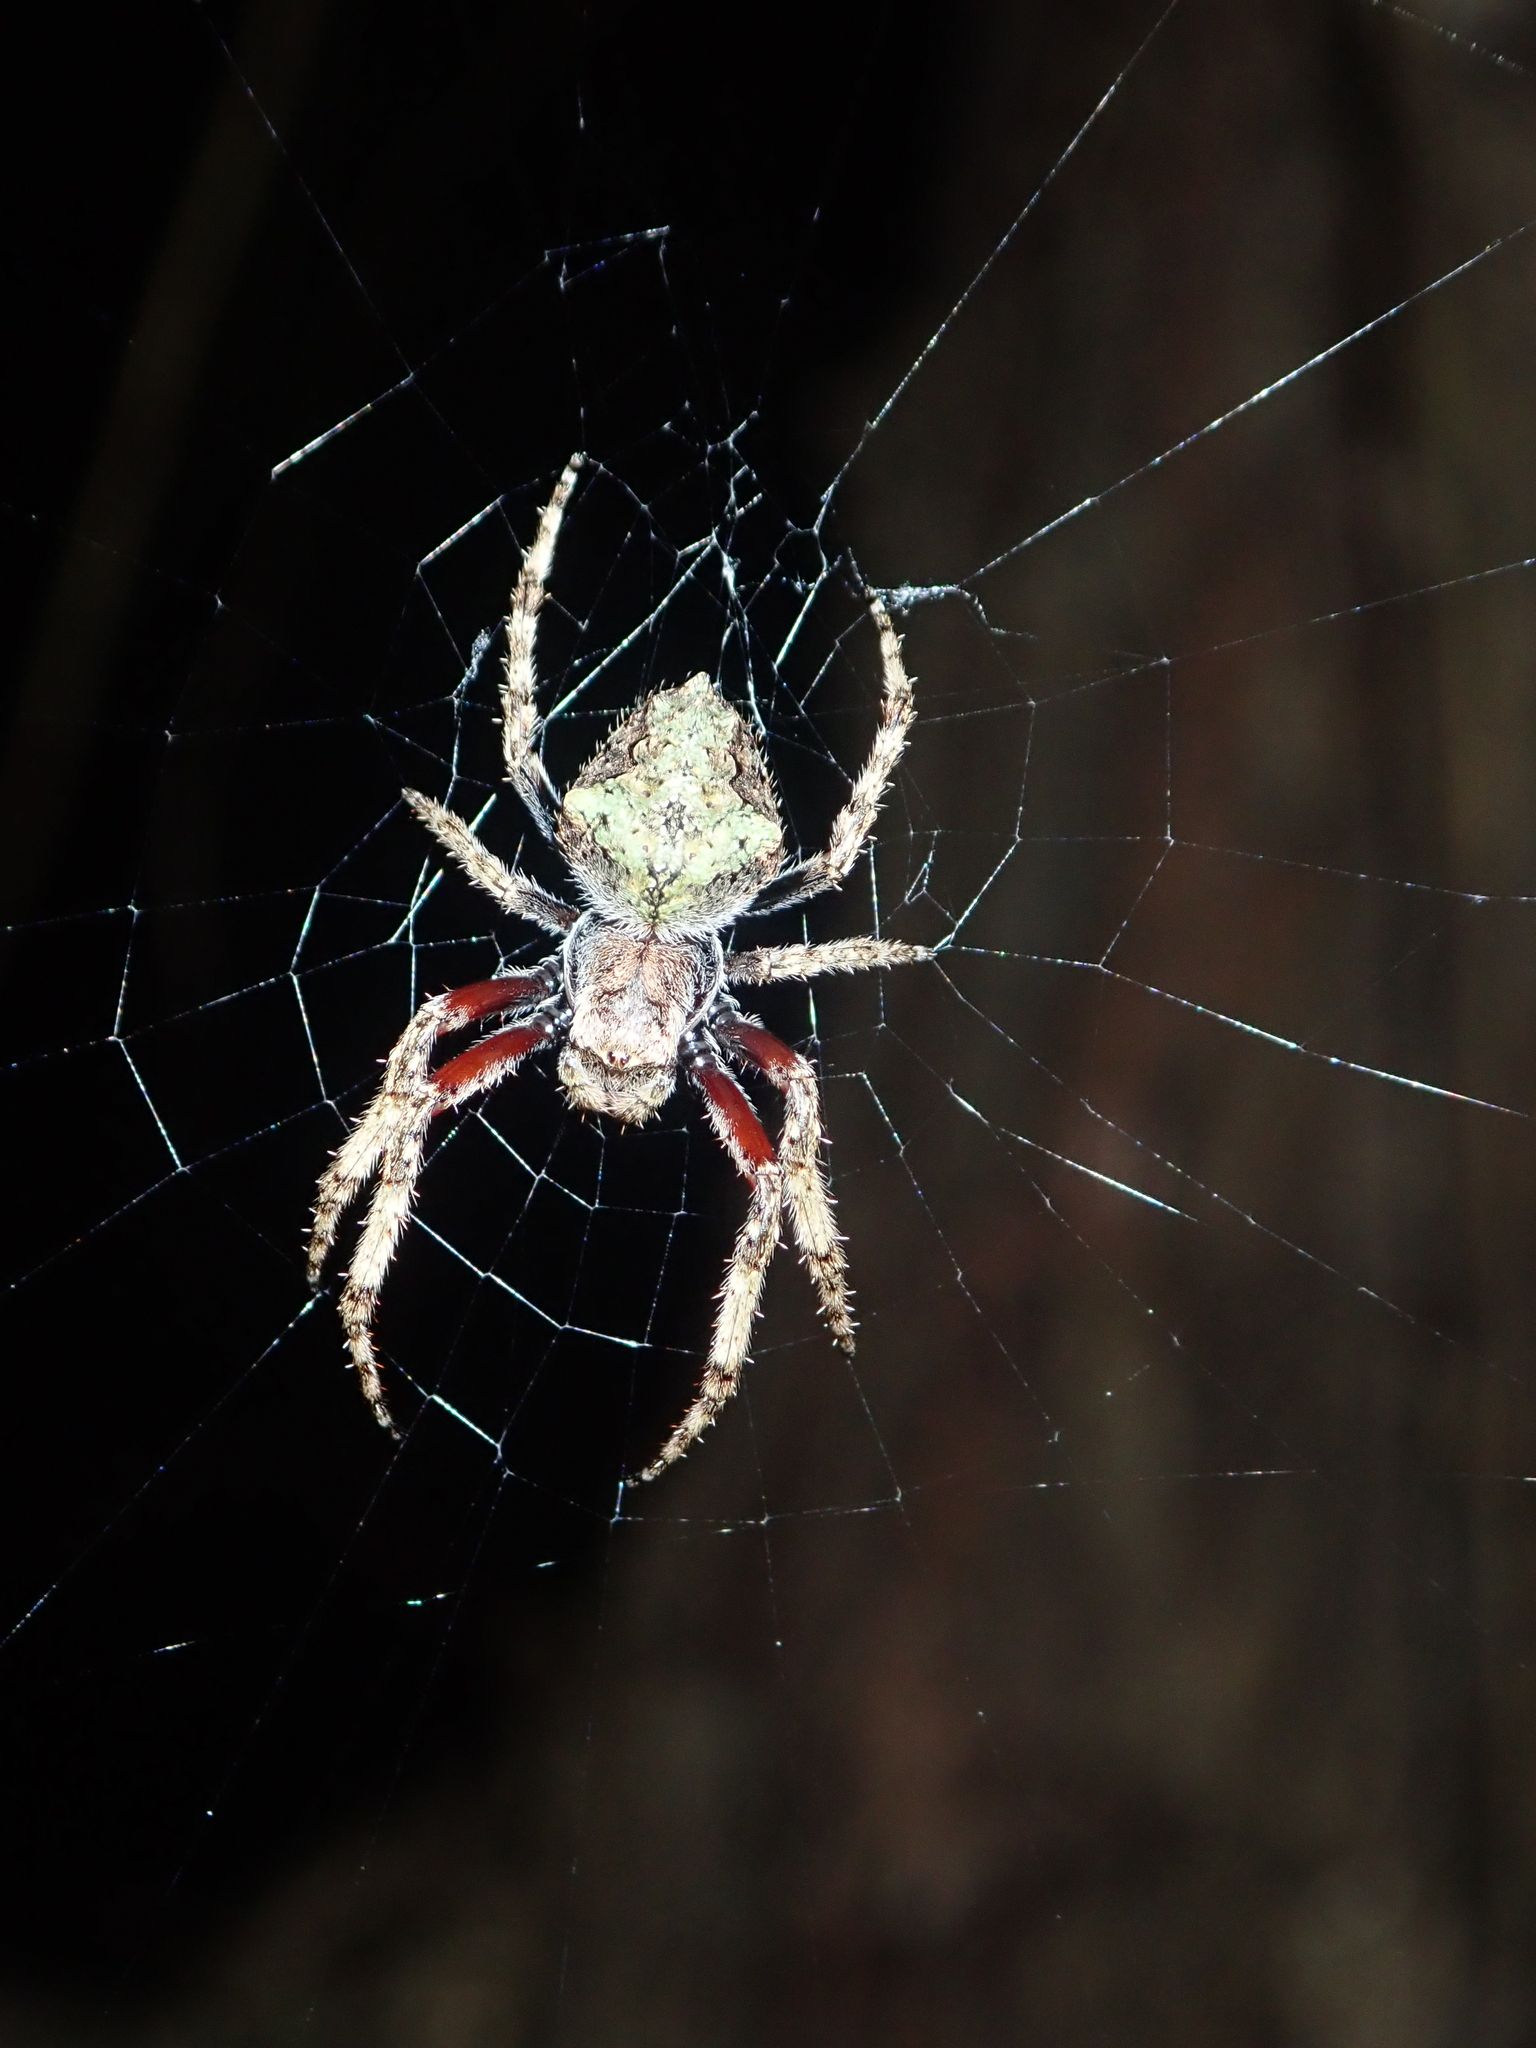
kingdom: Animalia
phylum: Arthropoda
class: Arachnida
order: Araneae
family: Araneidae
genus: Eriophora
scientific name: Eriophora pustulosa
